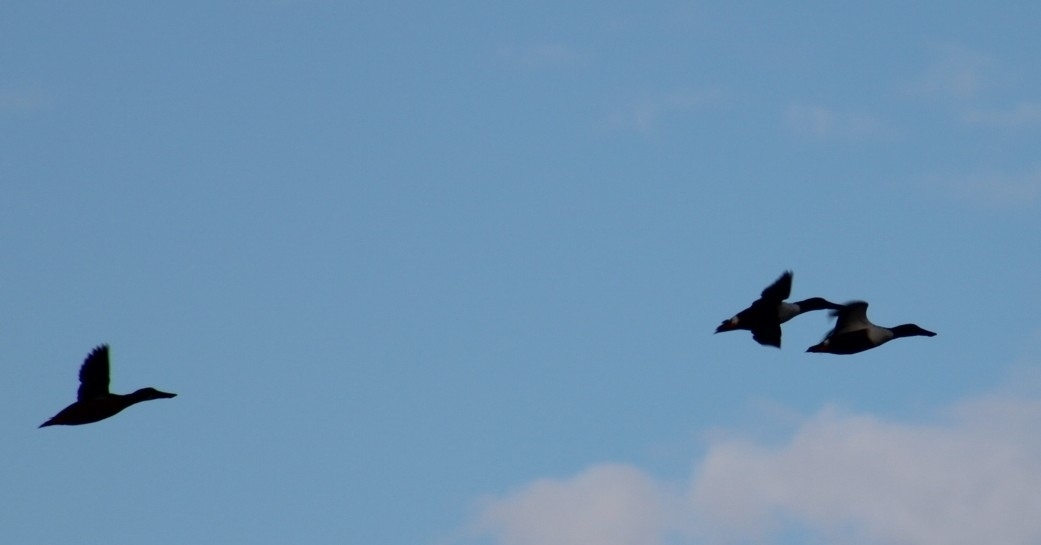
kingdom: Animalia
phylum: Chordata
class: Aves
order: Anseriformes
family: Anatidae
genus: Spatula
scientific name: Spatula clypeata
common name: Northern shoveler
